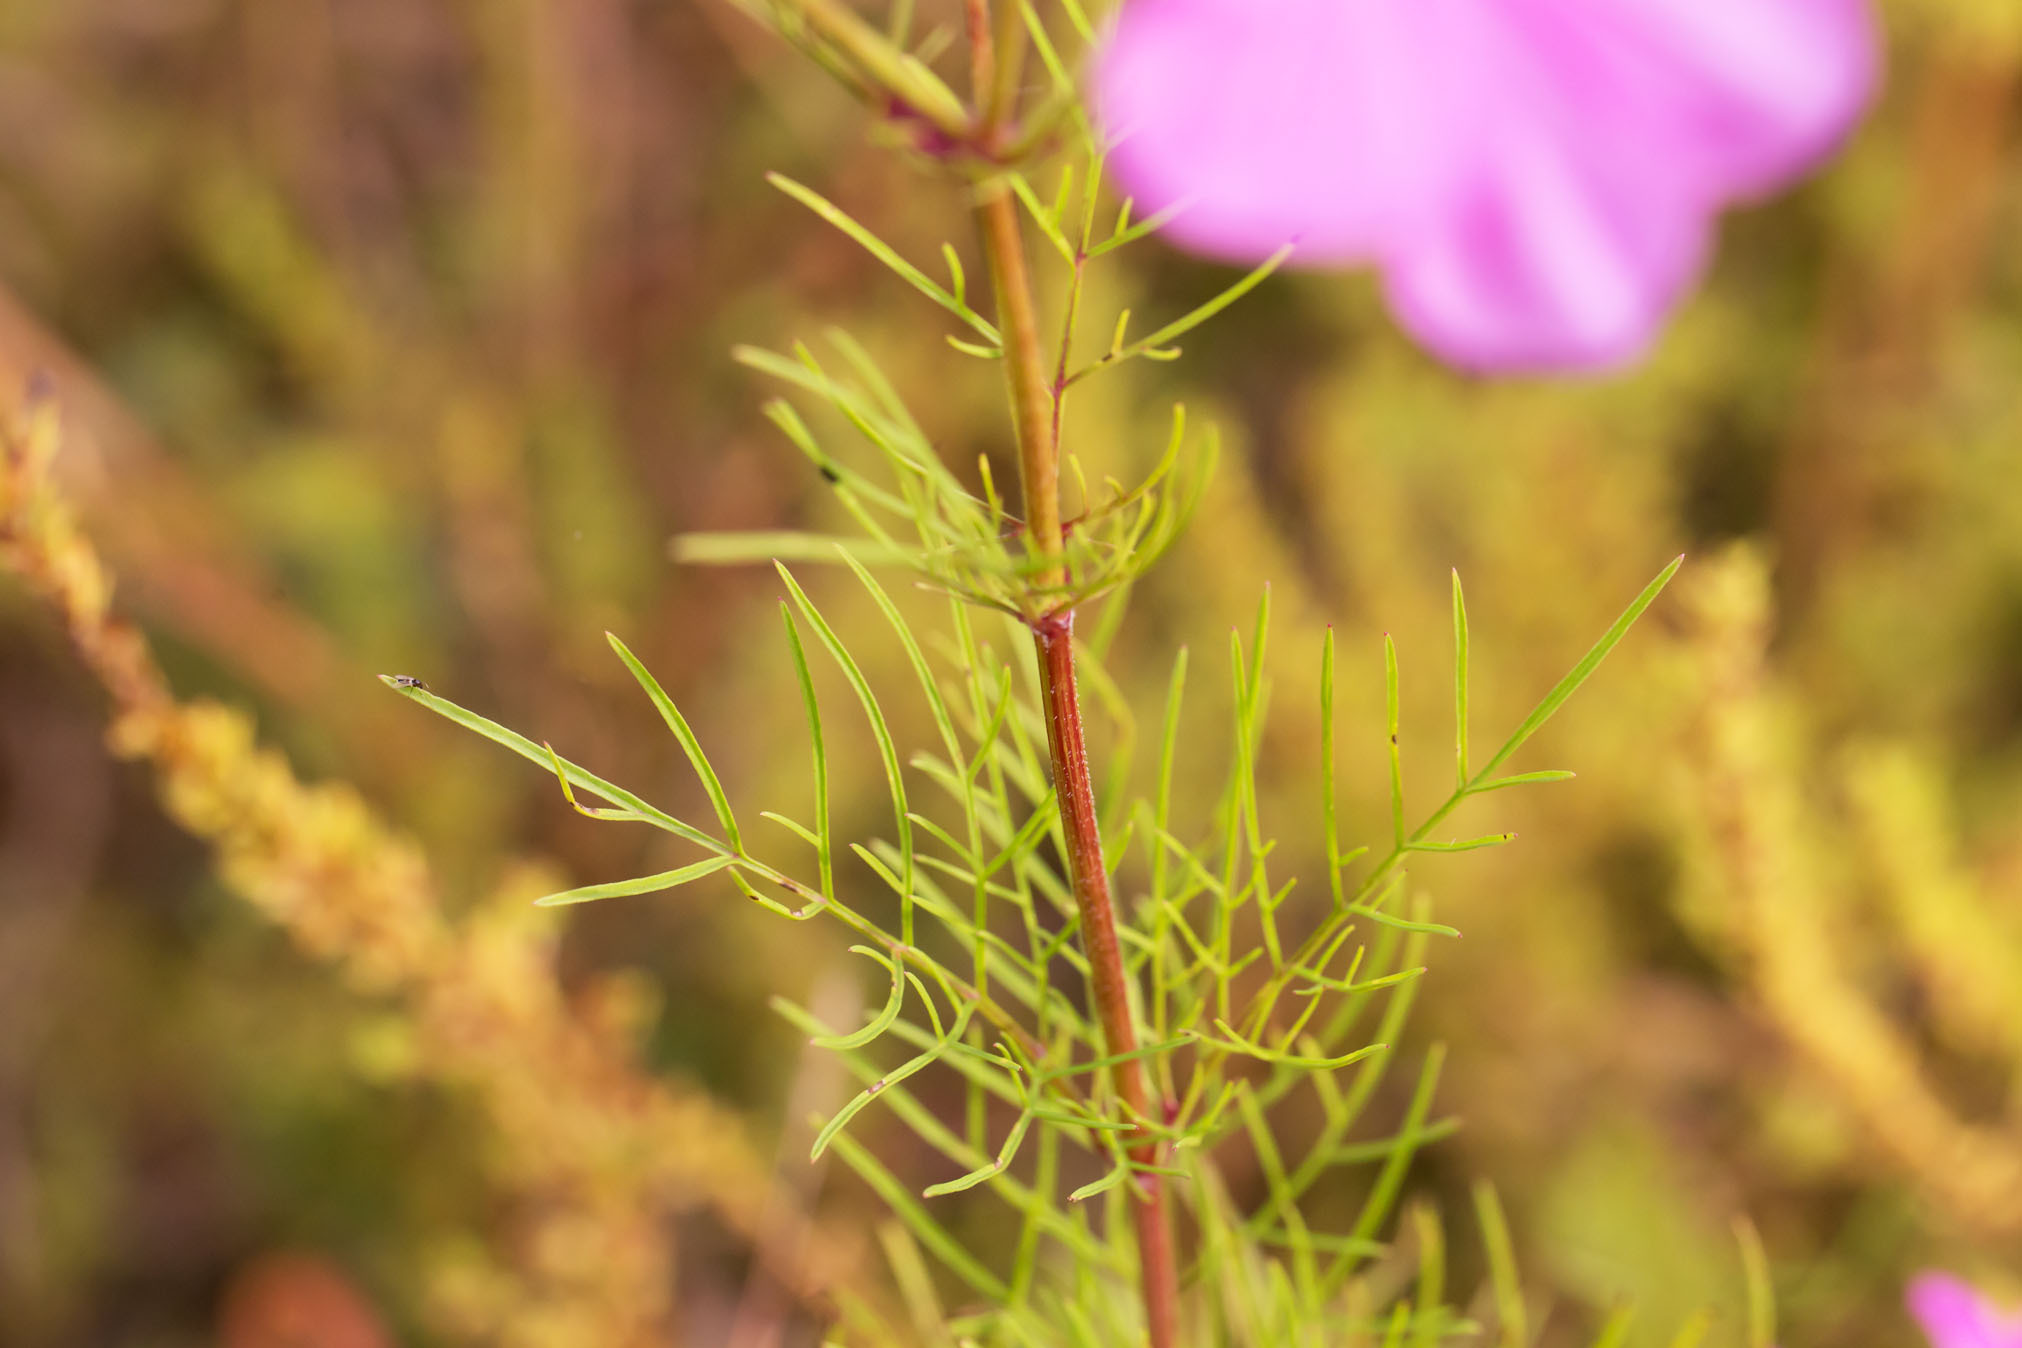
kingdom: Plantae
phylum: Tracheophyta
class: Magnoliopsida
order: Asterales
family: Asteraceae
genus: Cosmos
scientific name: Cosmos bipinnatus
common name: Garden cosmos
